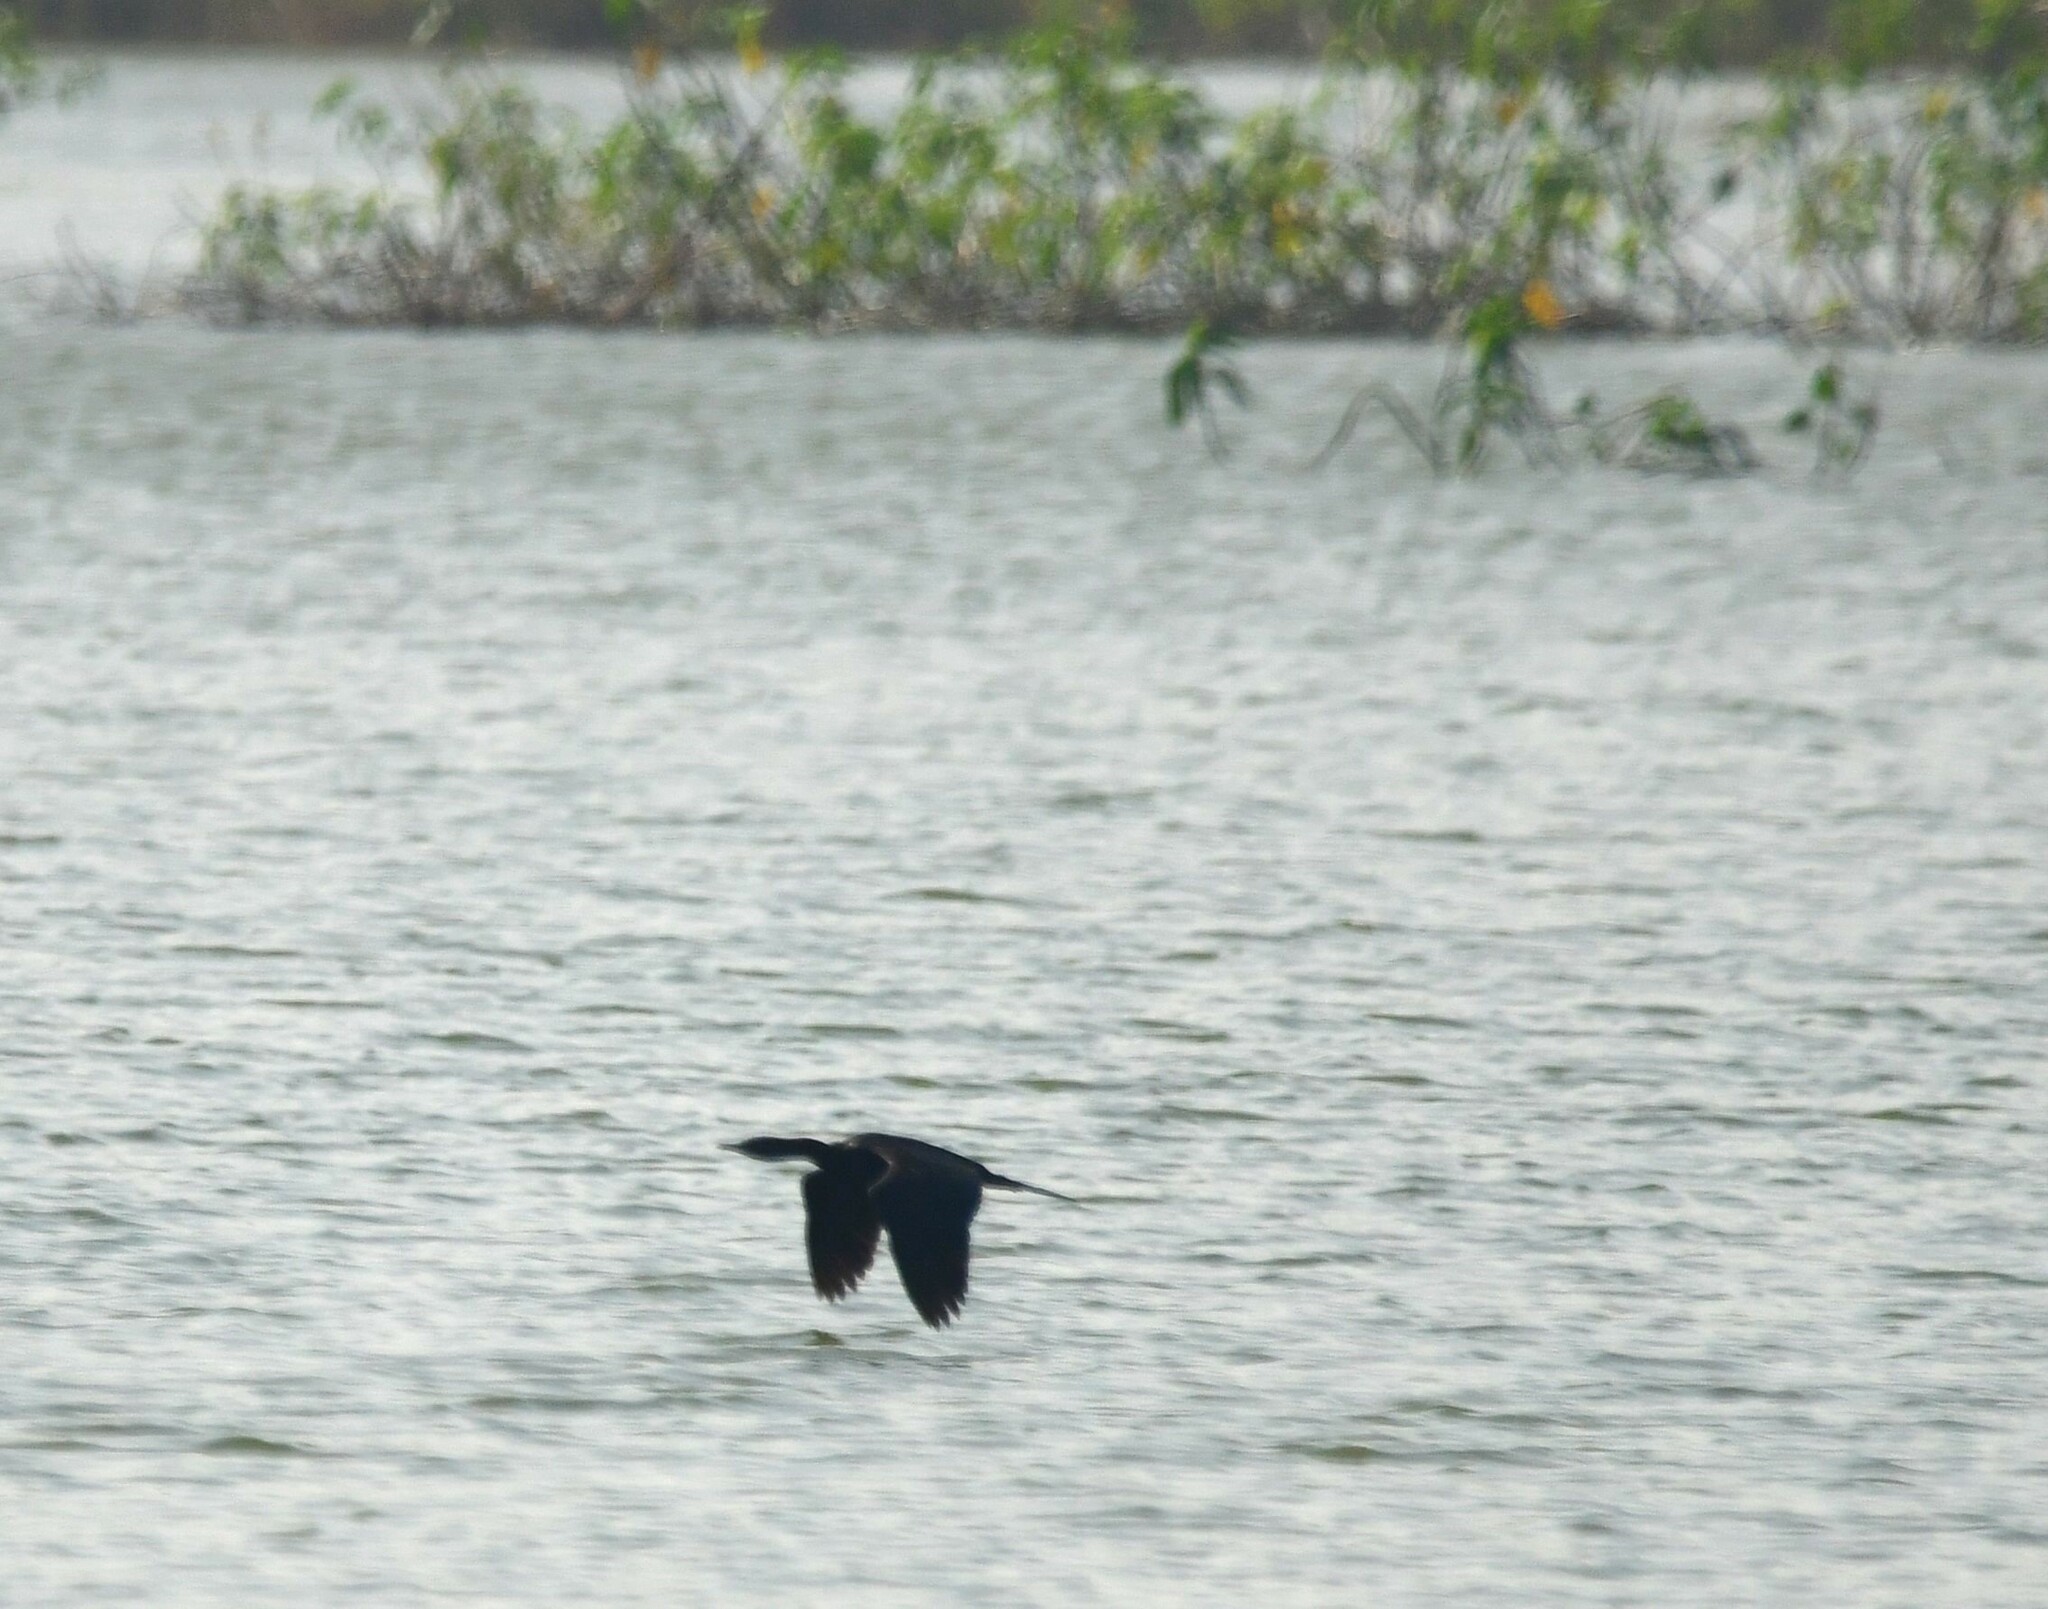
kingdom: Animalia
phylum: Chordata
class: Aves
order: Suliformes
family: Phalacrocoracidae
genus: Microcarbo
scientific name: Microcarbo niger
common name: Little cormorant
